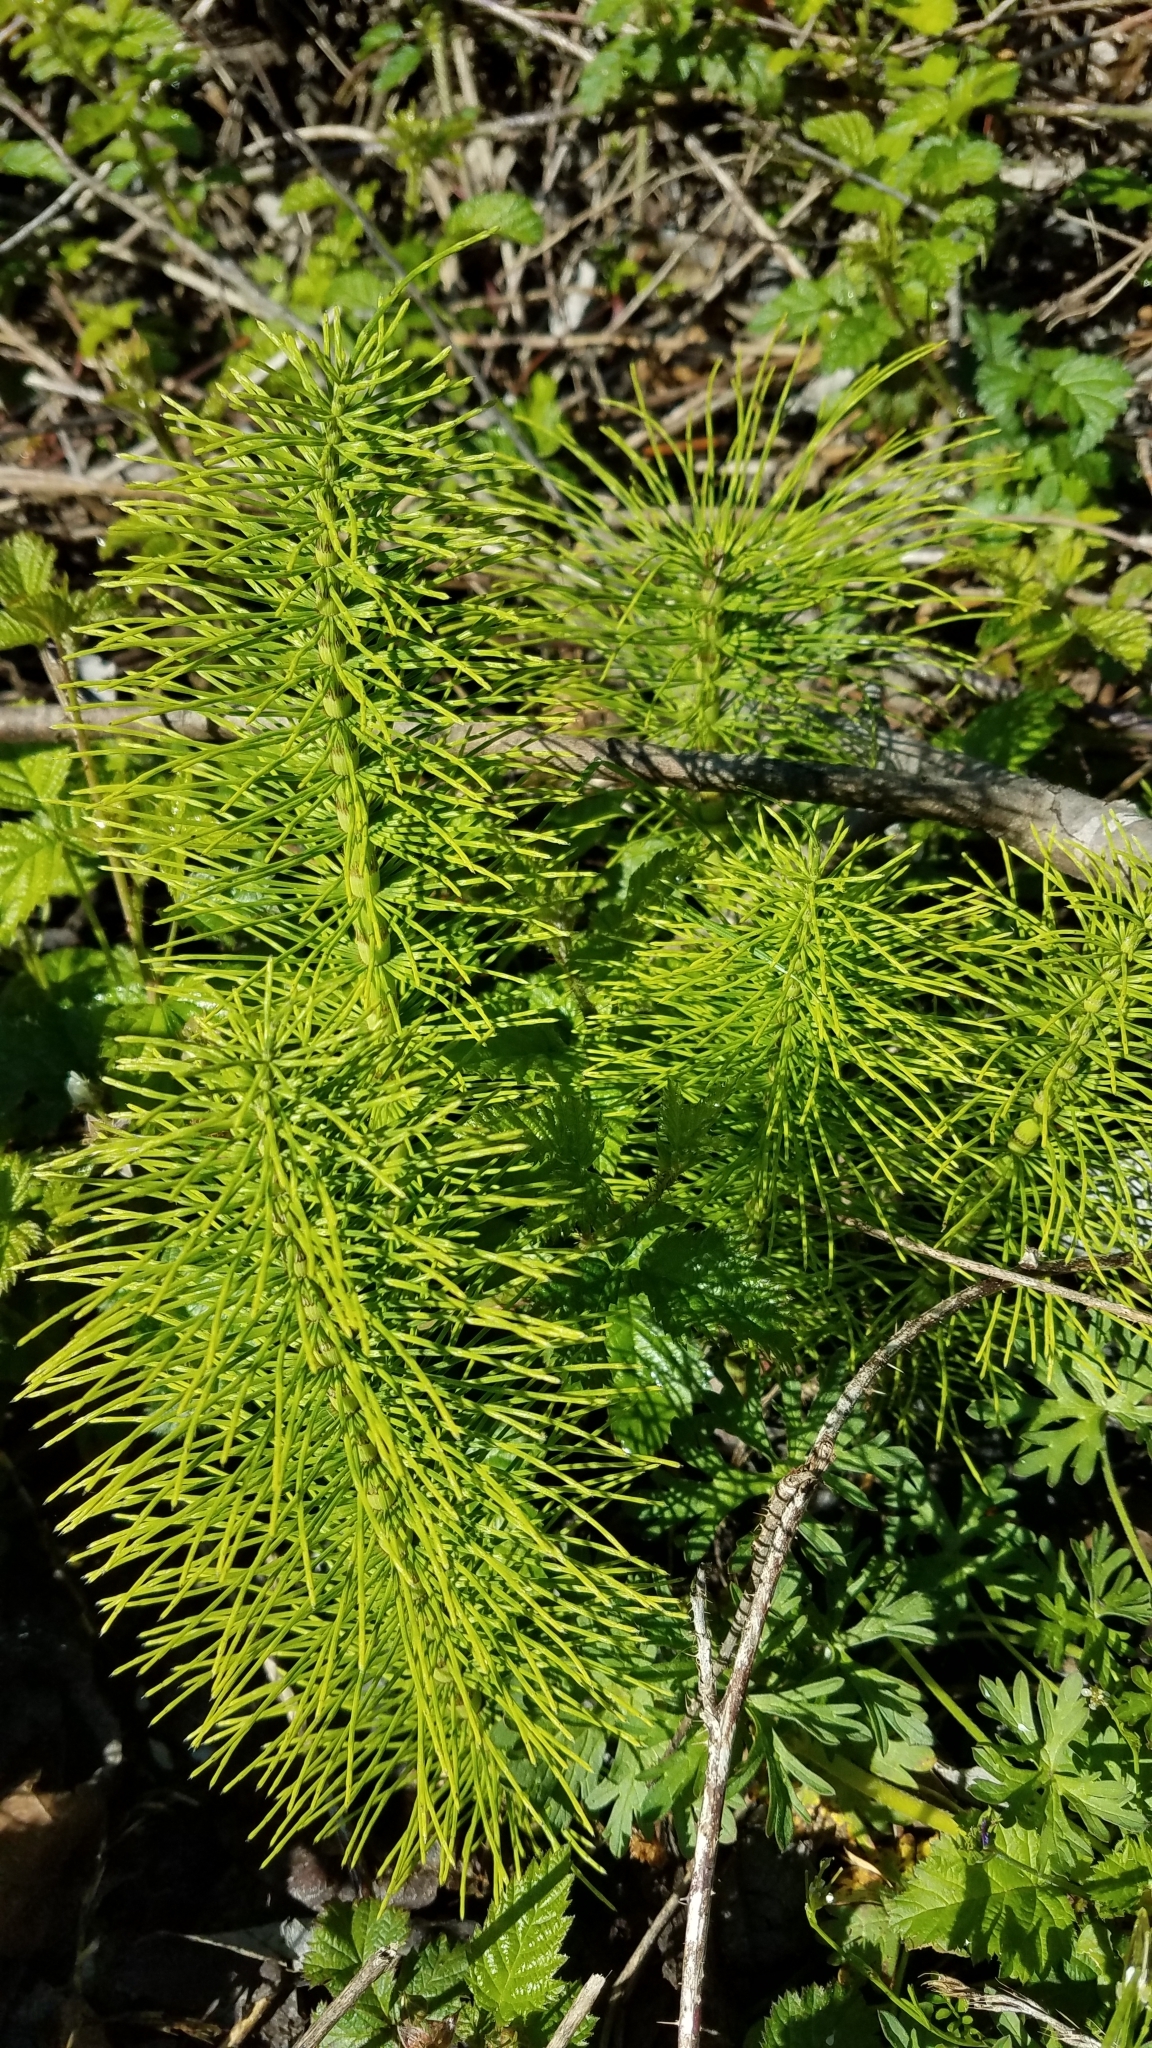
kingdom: Plantae
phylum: Tracheophyta
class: Polypodiopsida
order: Equisetales
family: Equisetaceae
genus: Equisetum
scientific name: Equisetum telmateia
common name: Great horsetail
